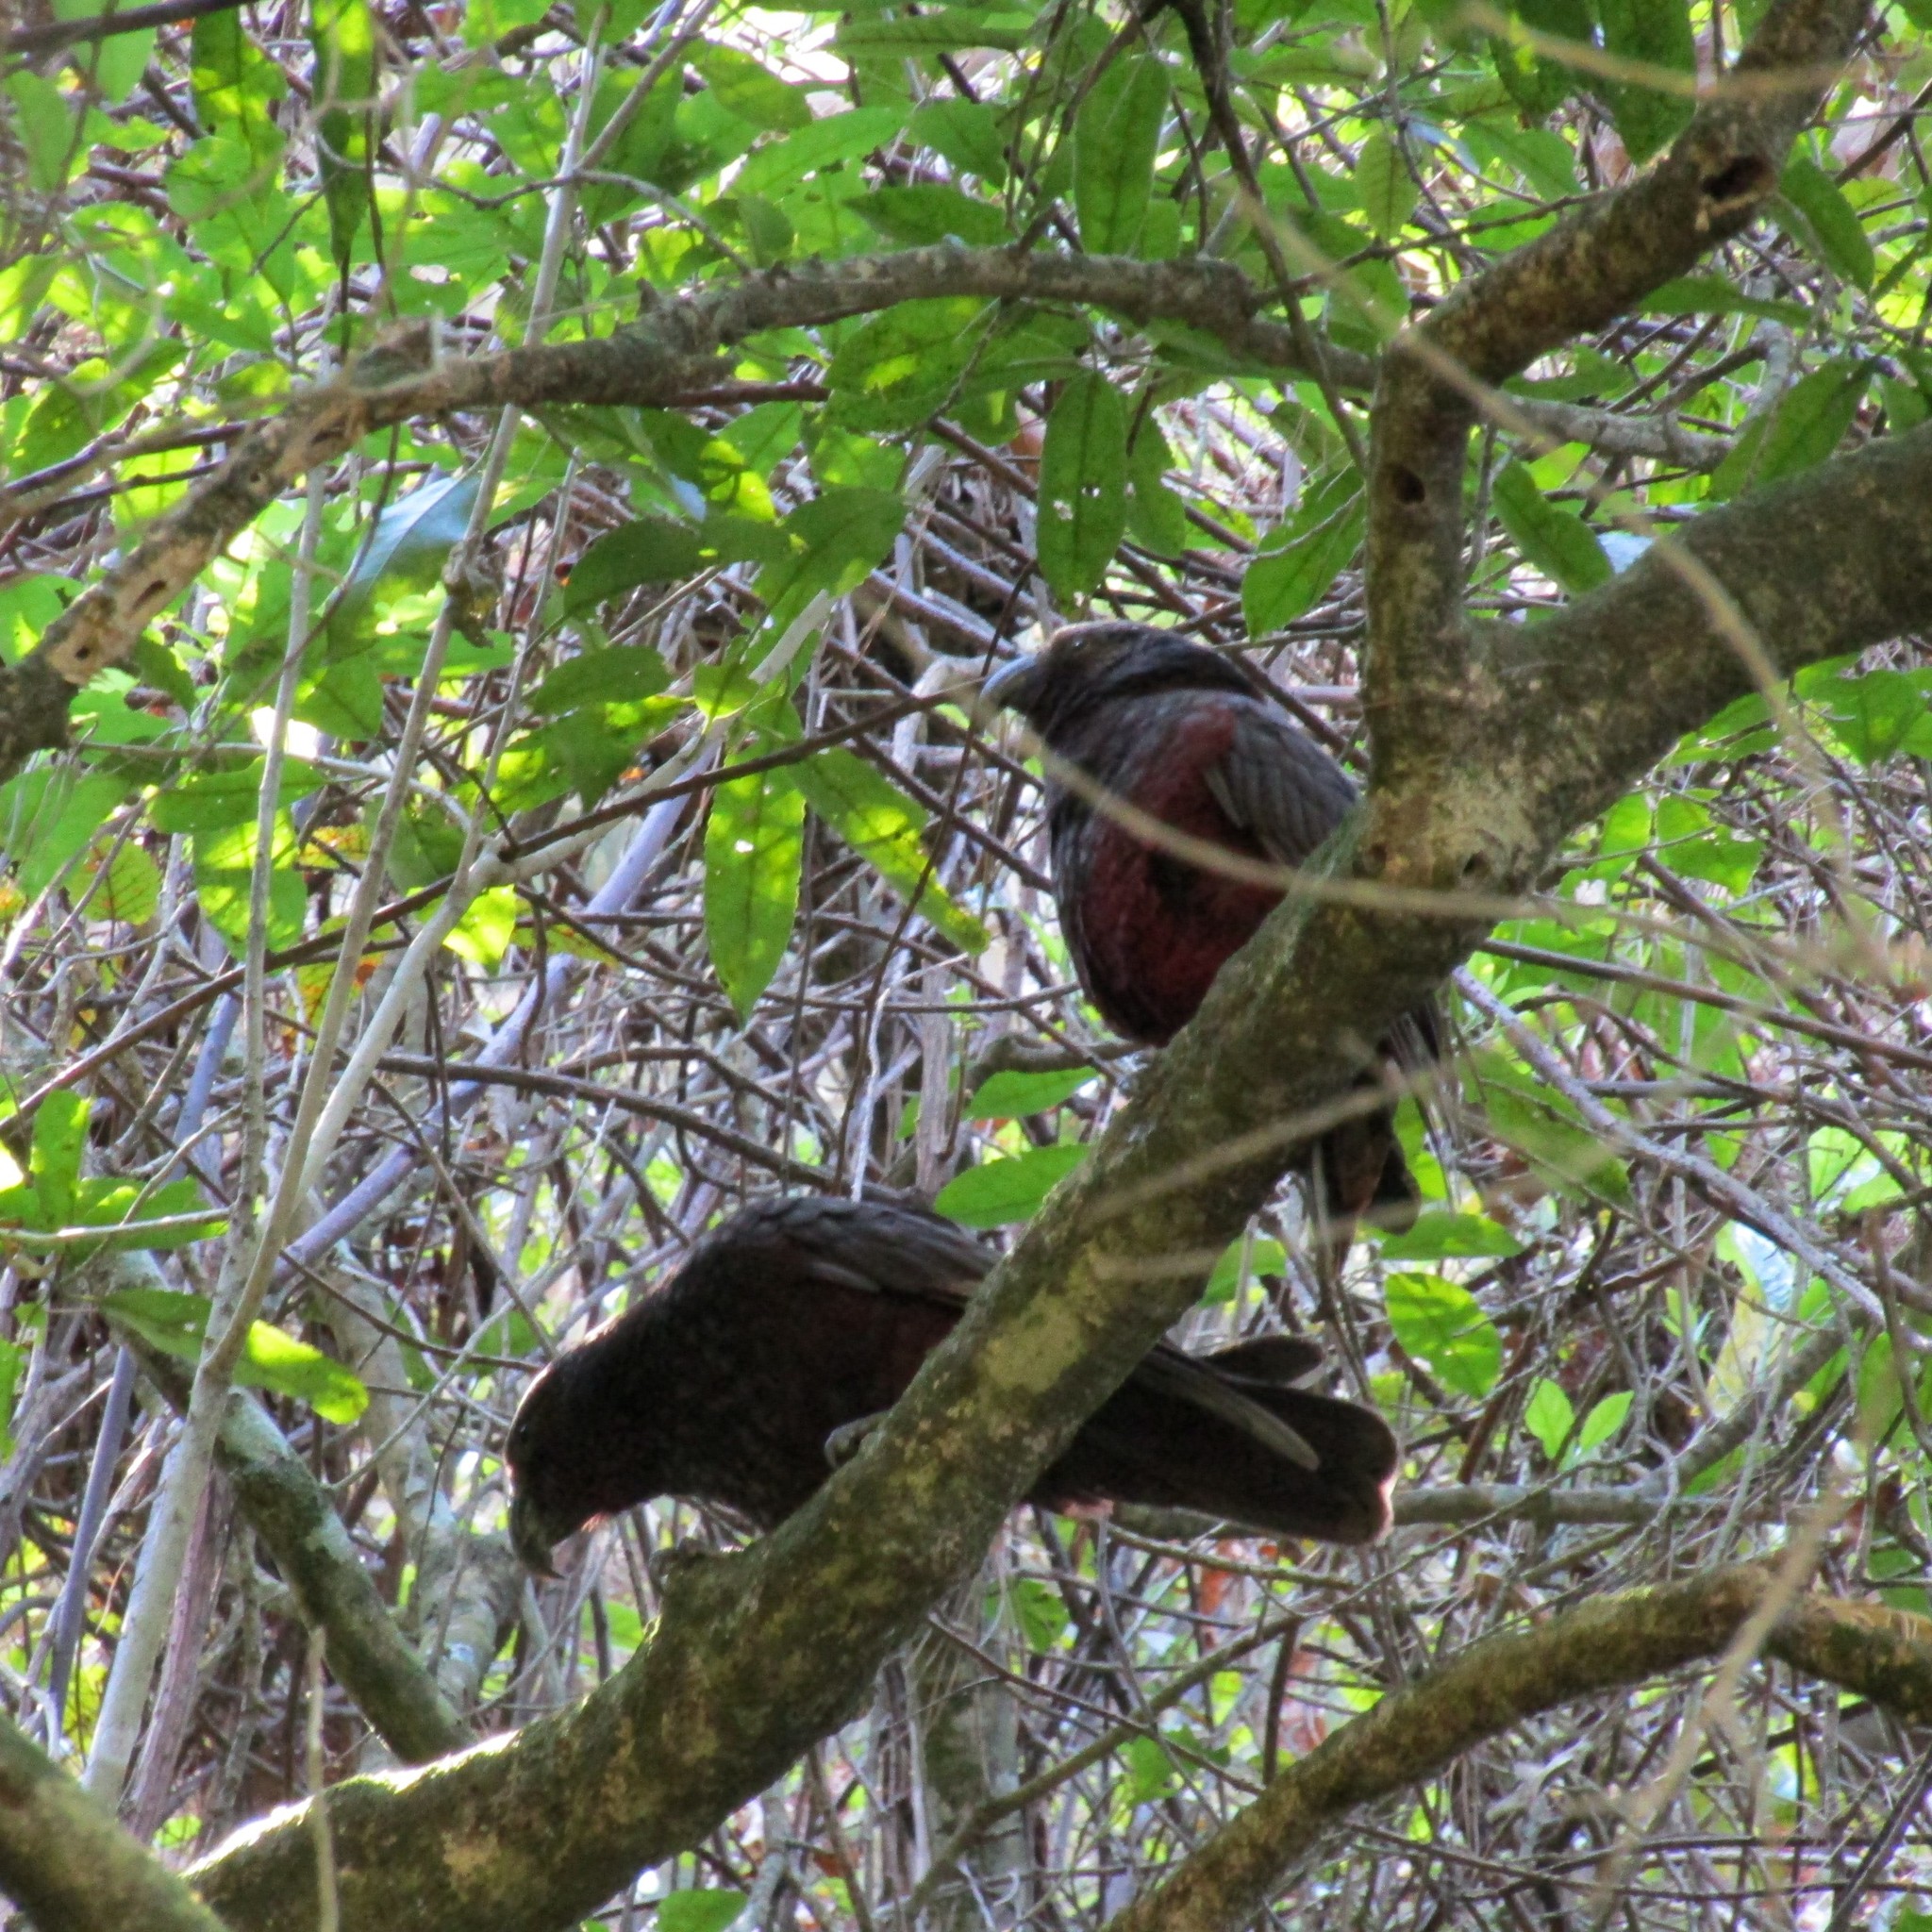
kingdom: Animalia
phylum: Chordata
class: Aves
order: Psittaciformes
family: Psittacidae
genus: Nestor
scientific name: Nestor meridionalis
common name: New zealand kaka
